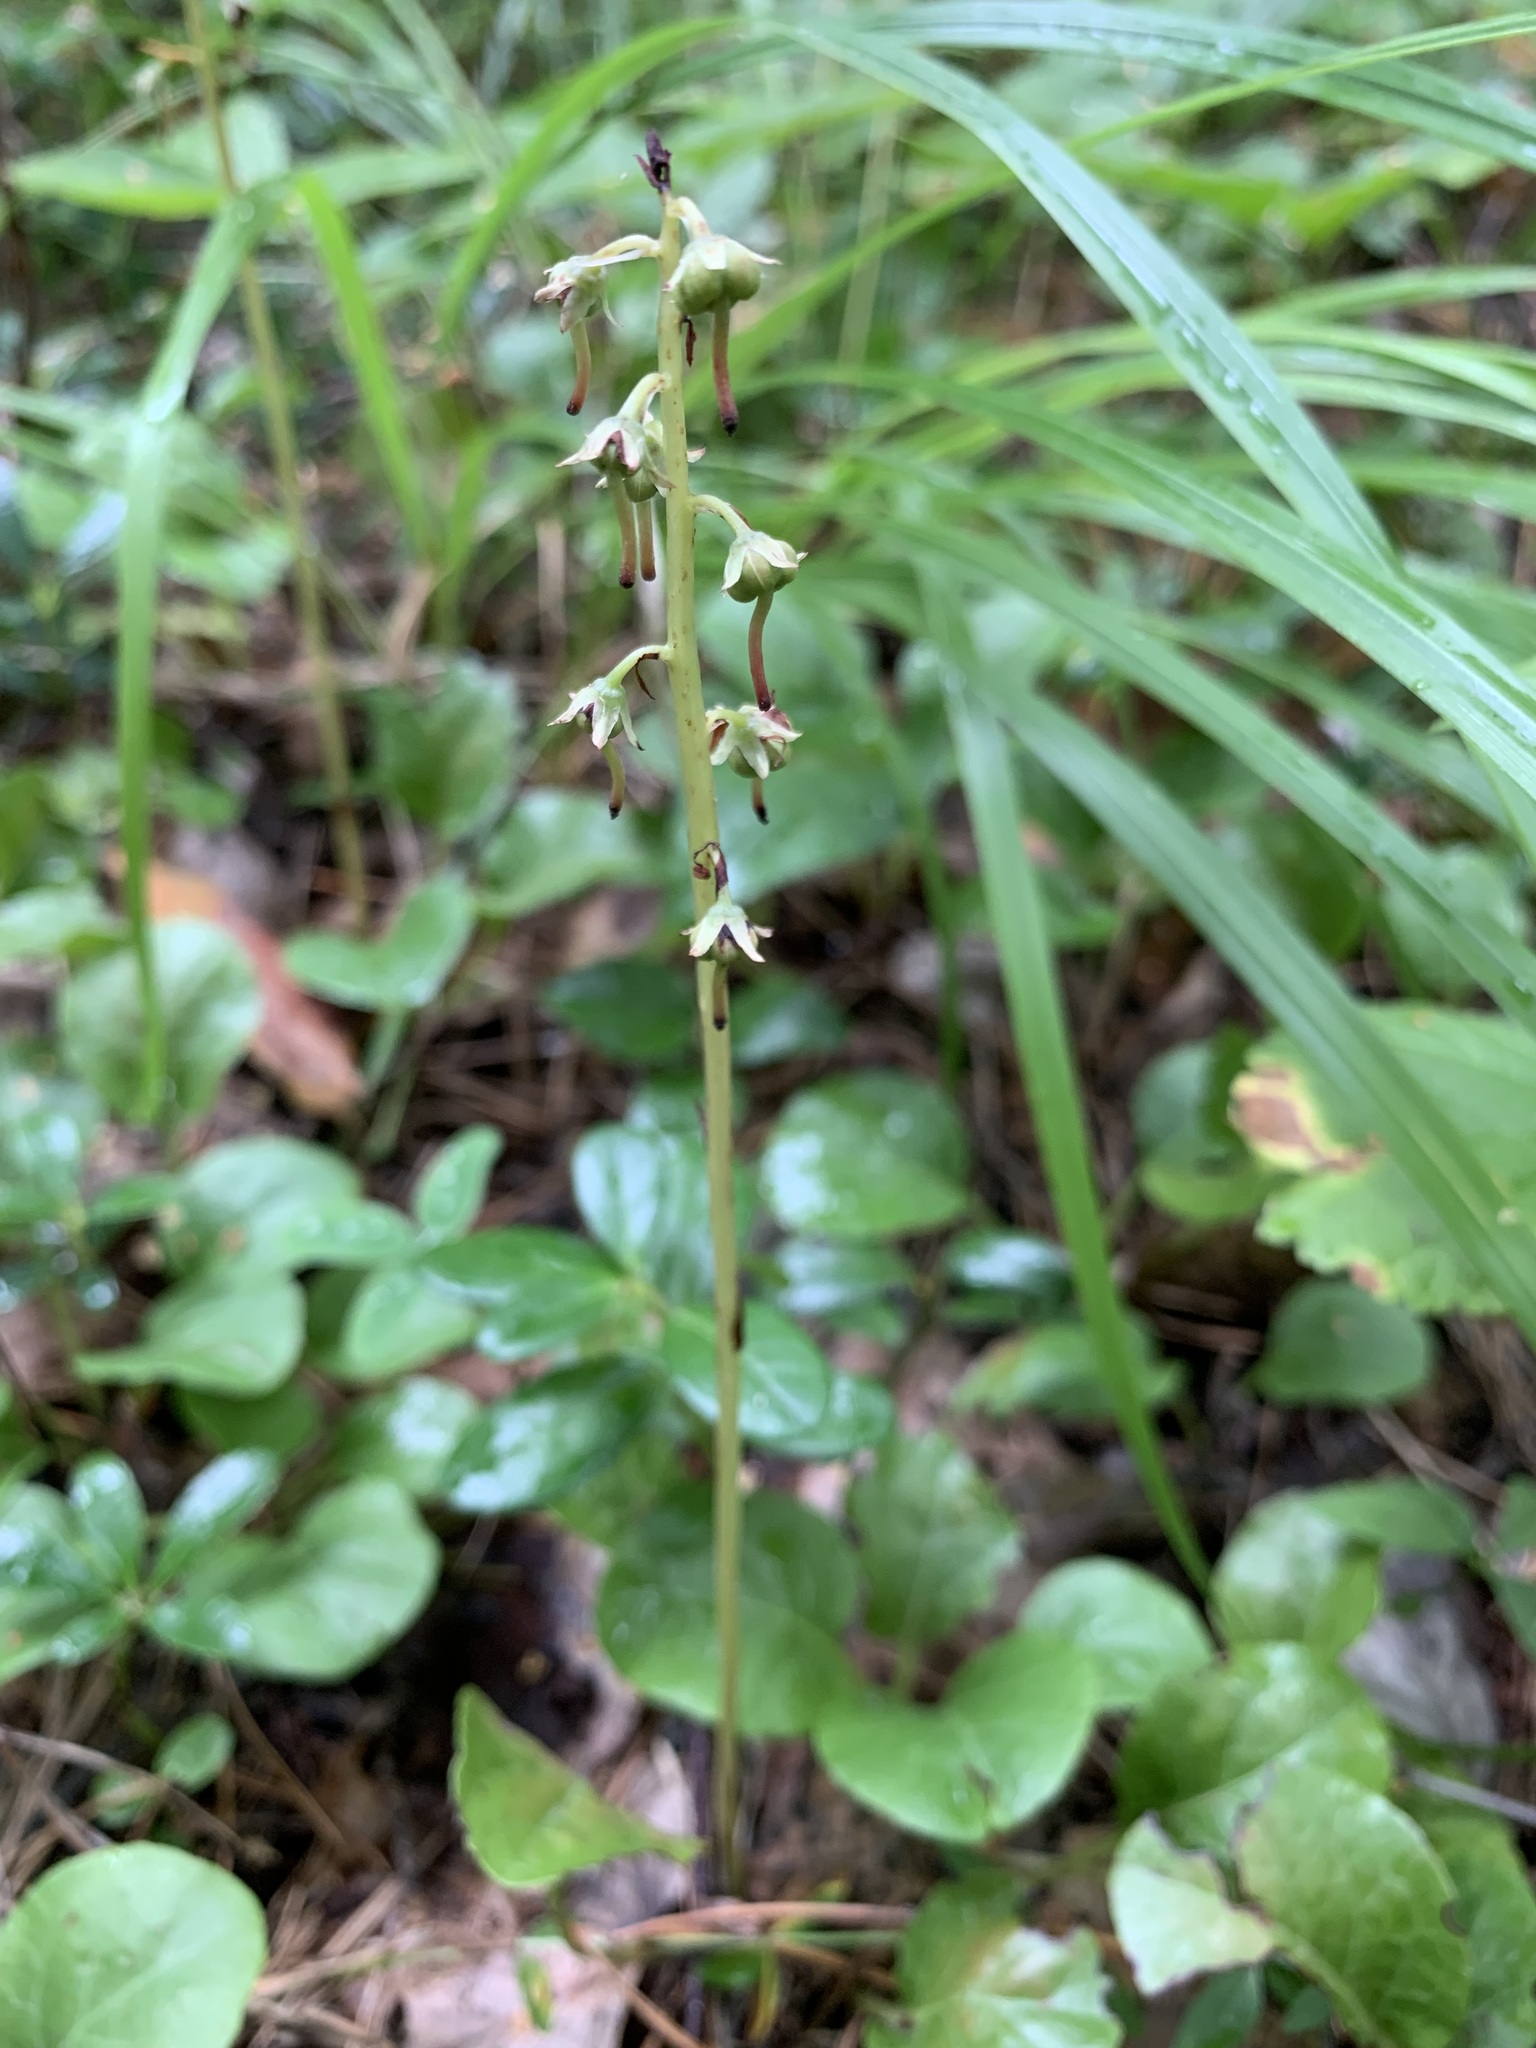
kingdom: Plantae
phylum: Tracheophyta
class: Magnoliopsida
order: Ericales
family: Ericaceae
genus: Pyrola
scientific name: Pyrola rotundifolia
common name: Round-leaved wintergreen
